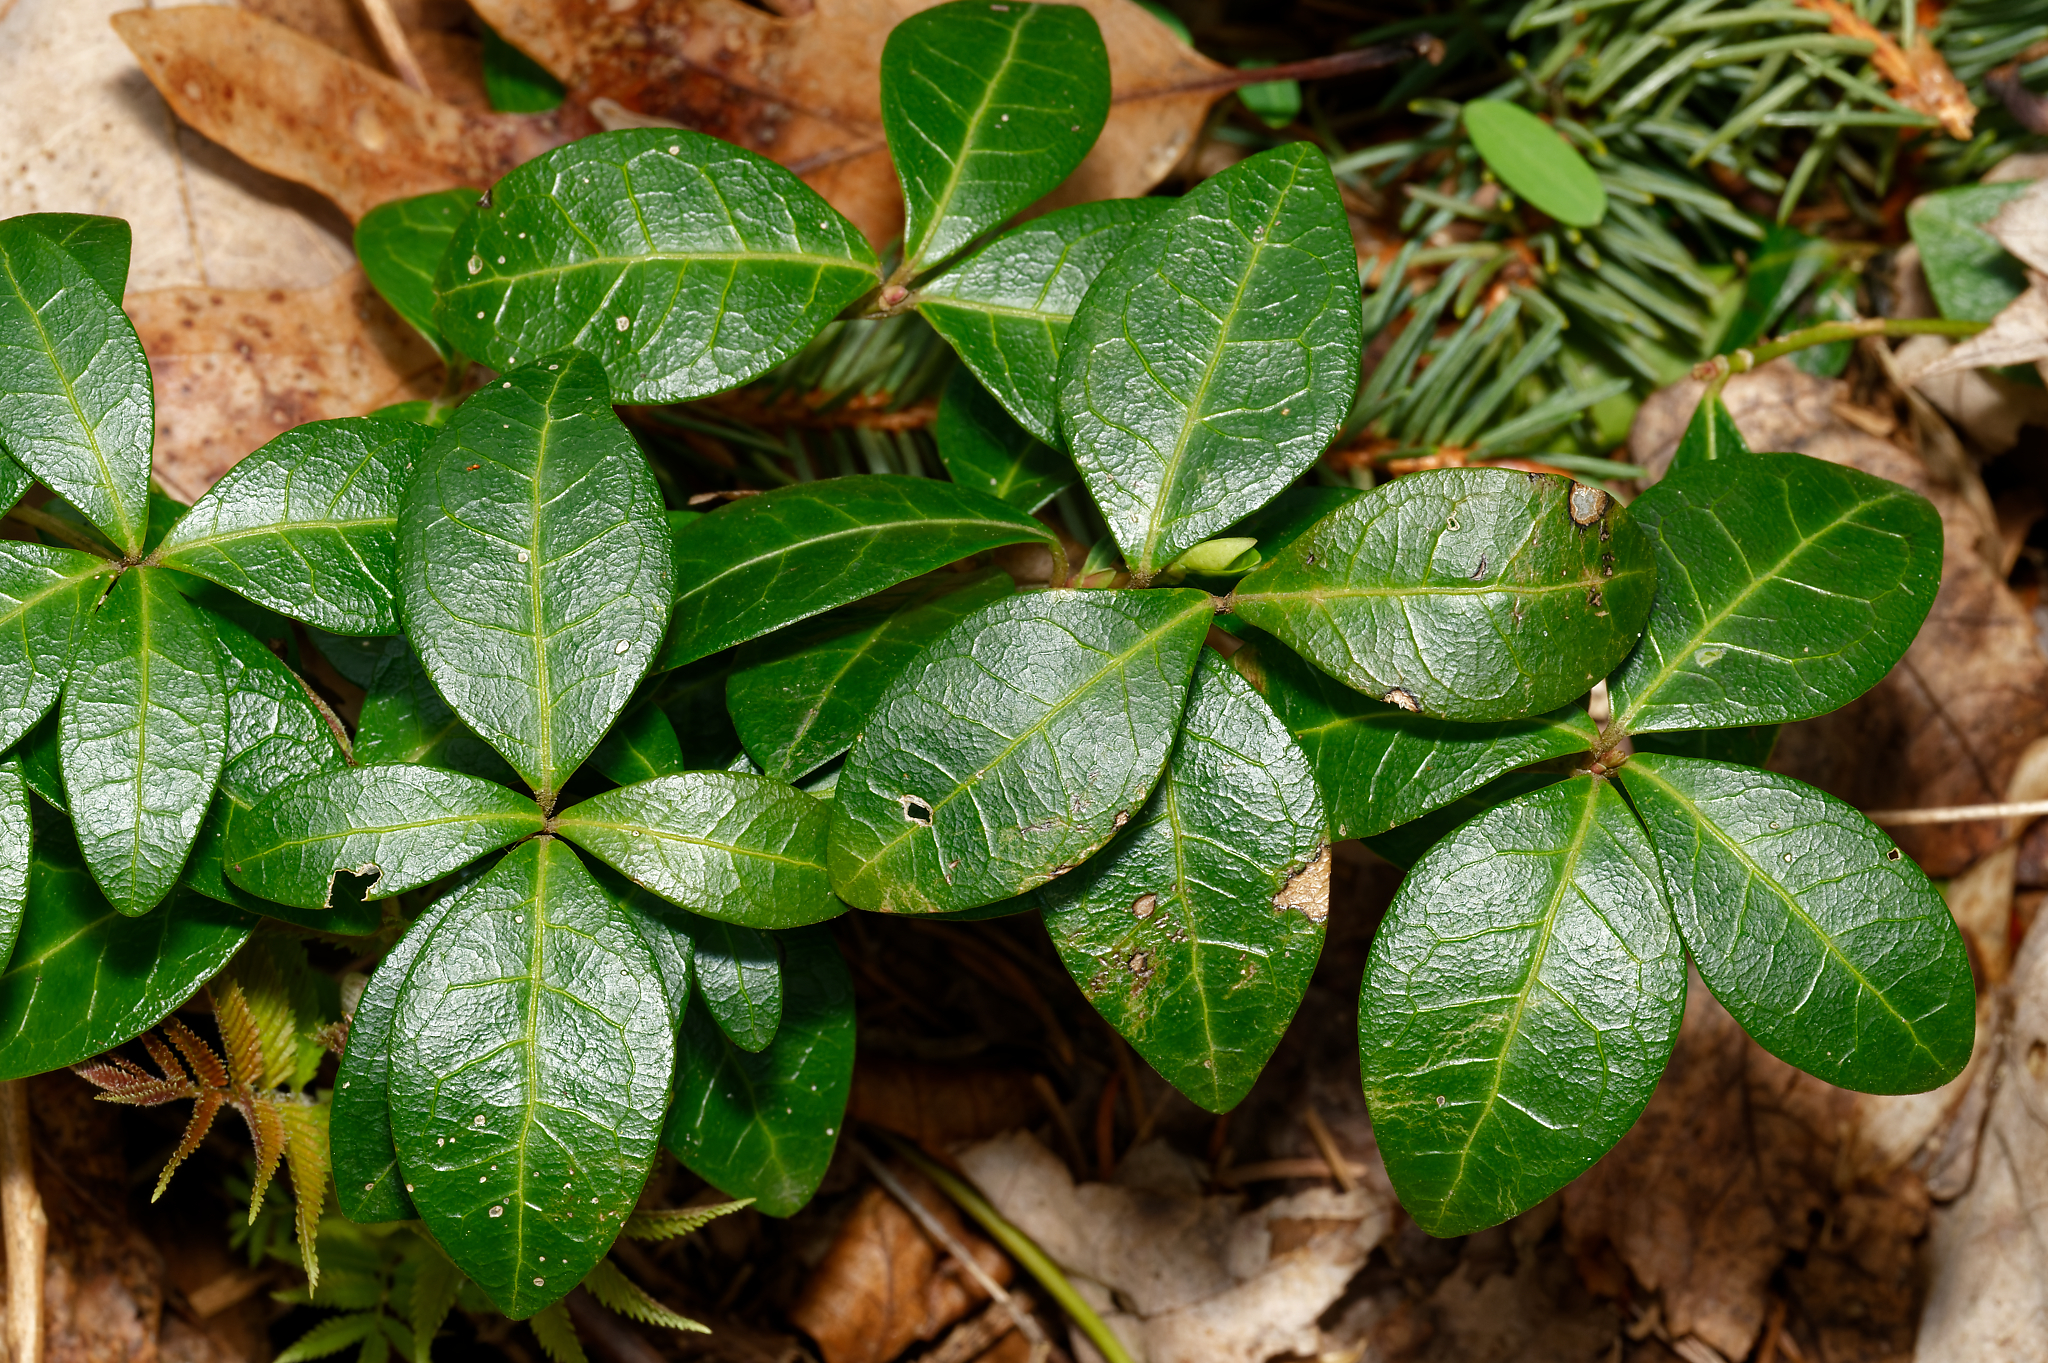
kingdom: Plantae
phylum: Tracheophyta
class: Magnoliopsida
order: Gentianales
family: Apocynaceae
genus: Vinca
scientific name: Vinca minor
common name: Lesser periwinkle
